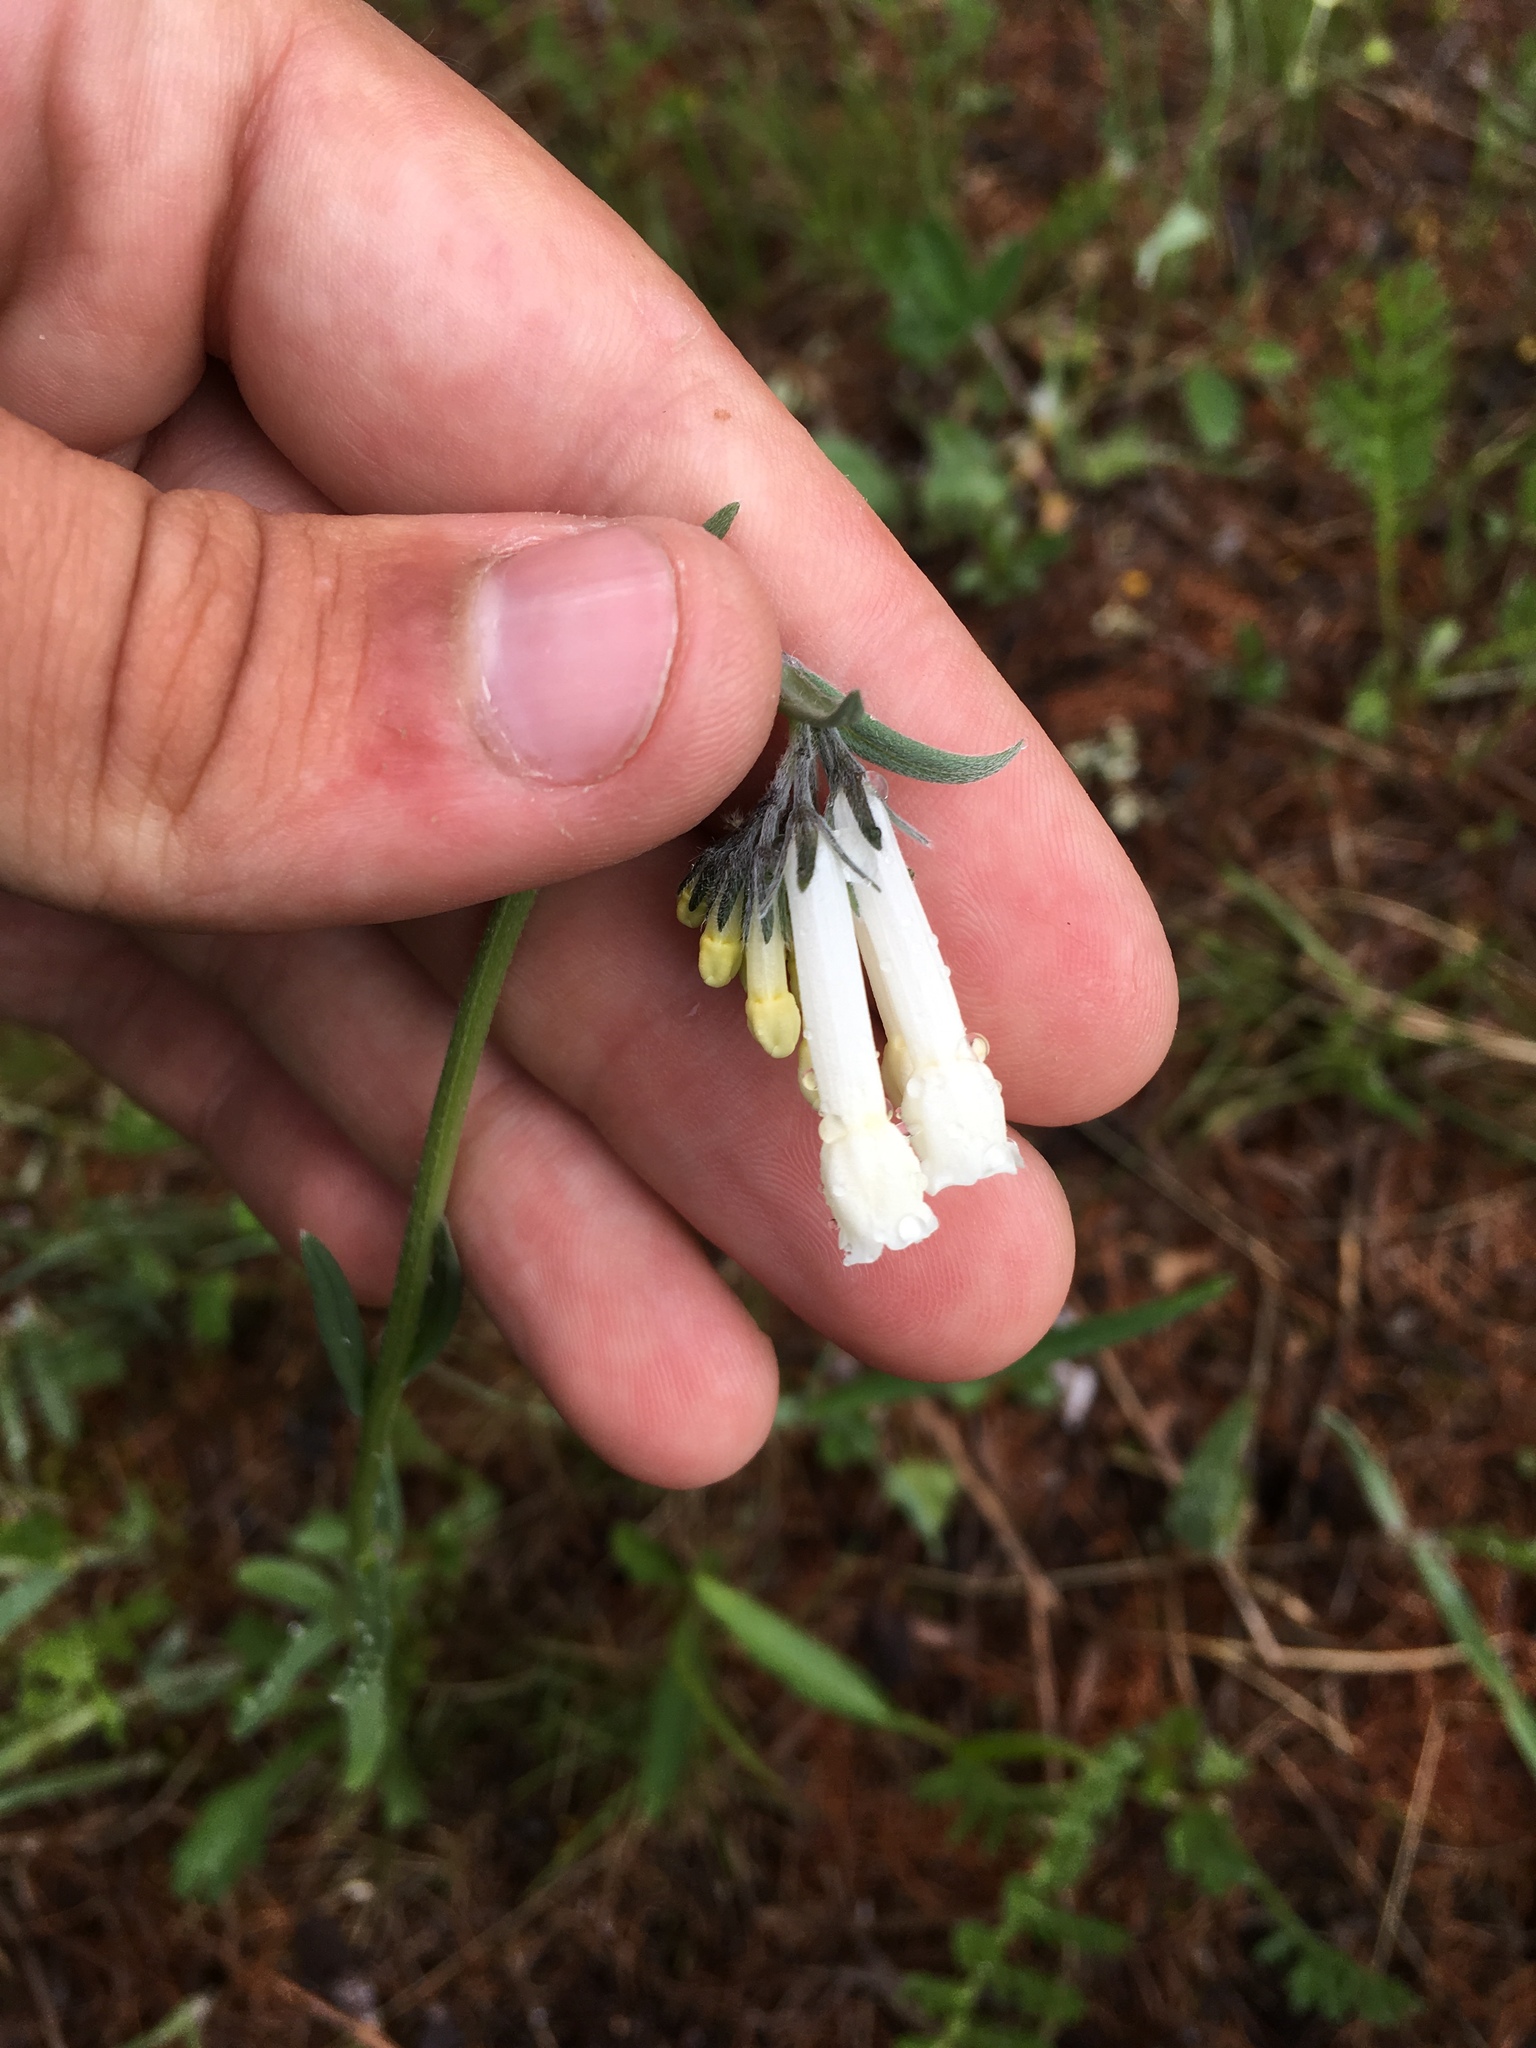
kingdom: Plantae
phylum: Tracheophyta
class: Magnoliopsida
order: Boraginales
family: Boraginaceae
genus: Mertensia
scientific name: Mertensia davurica
